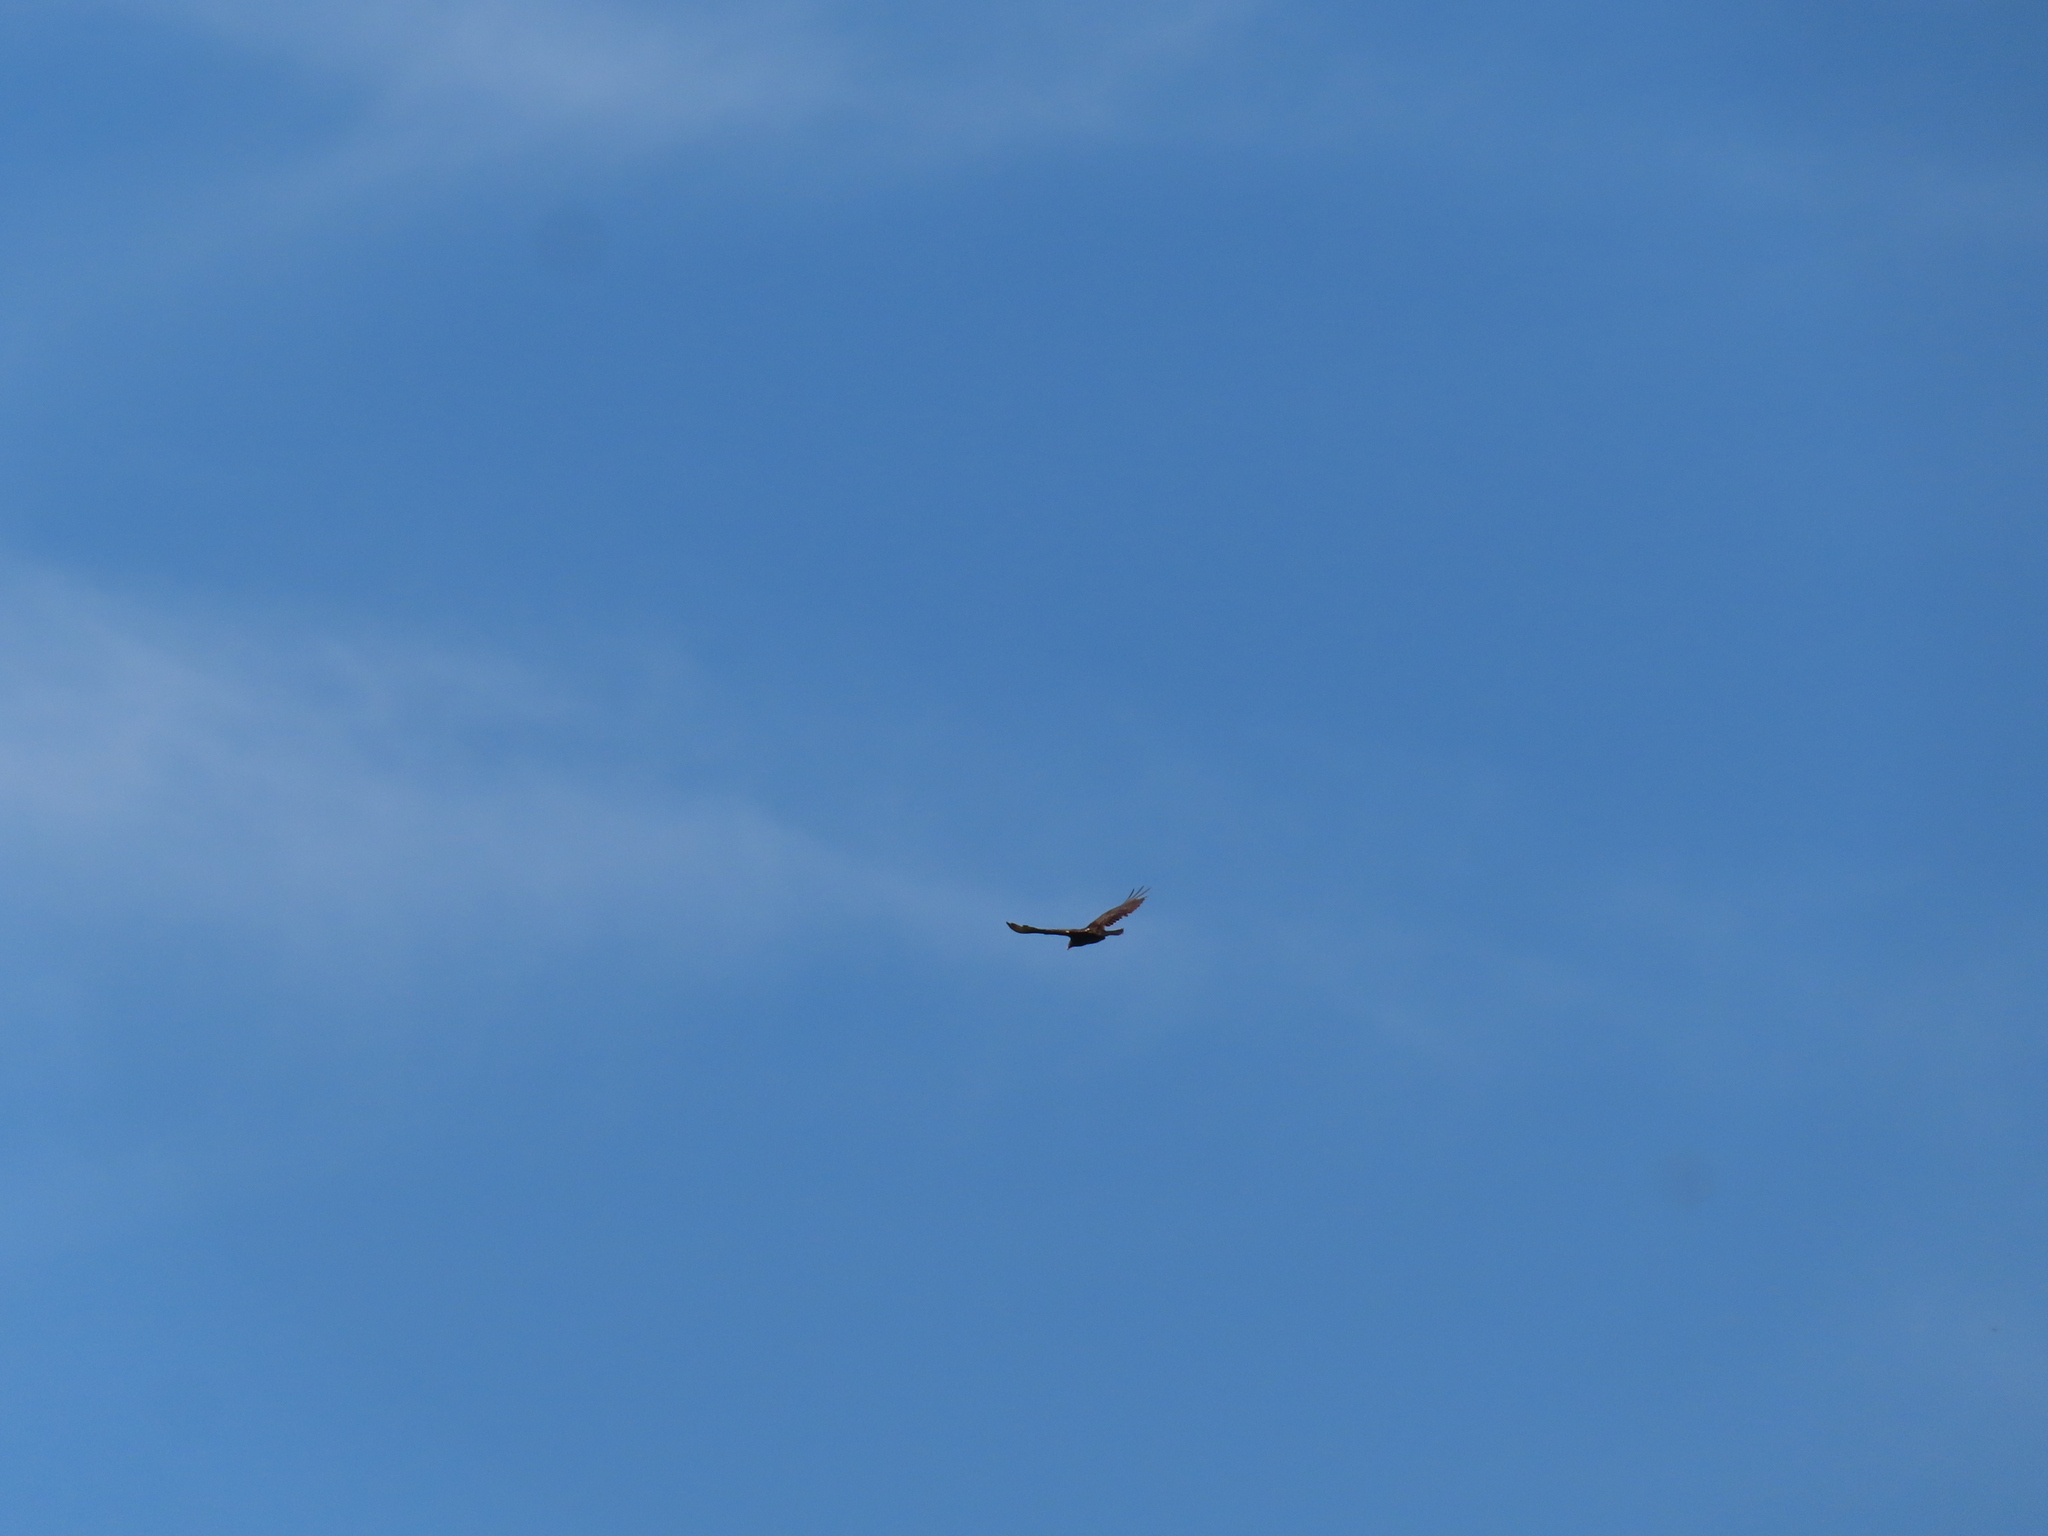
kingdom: Animalia
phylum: Chordata
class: Aves
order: Accipitriformes
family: Cathartidae
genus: Cathartes
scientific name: Cathartes aura
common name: Turkey vulture
